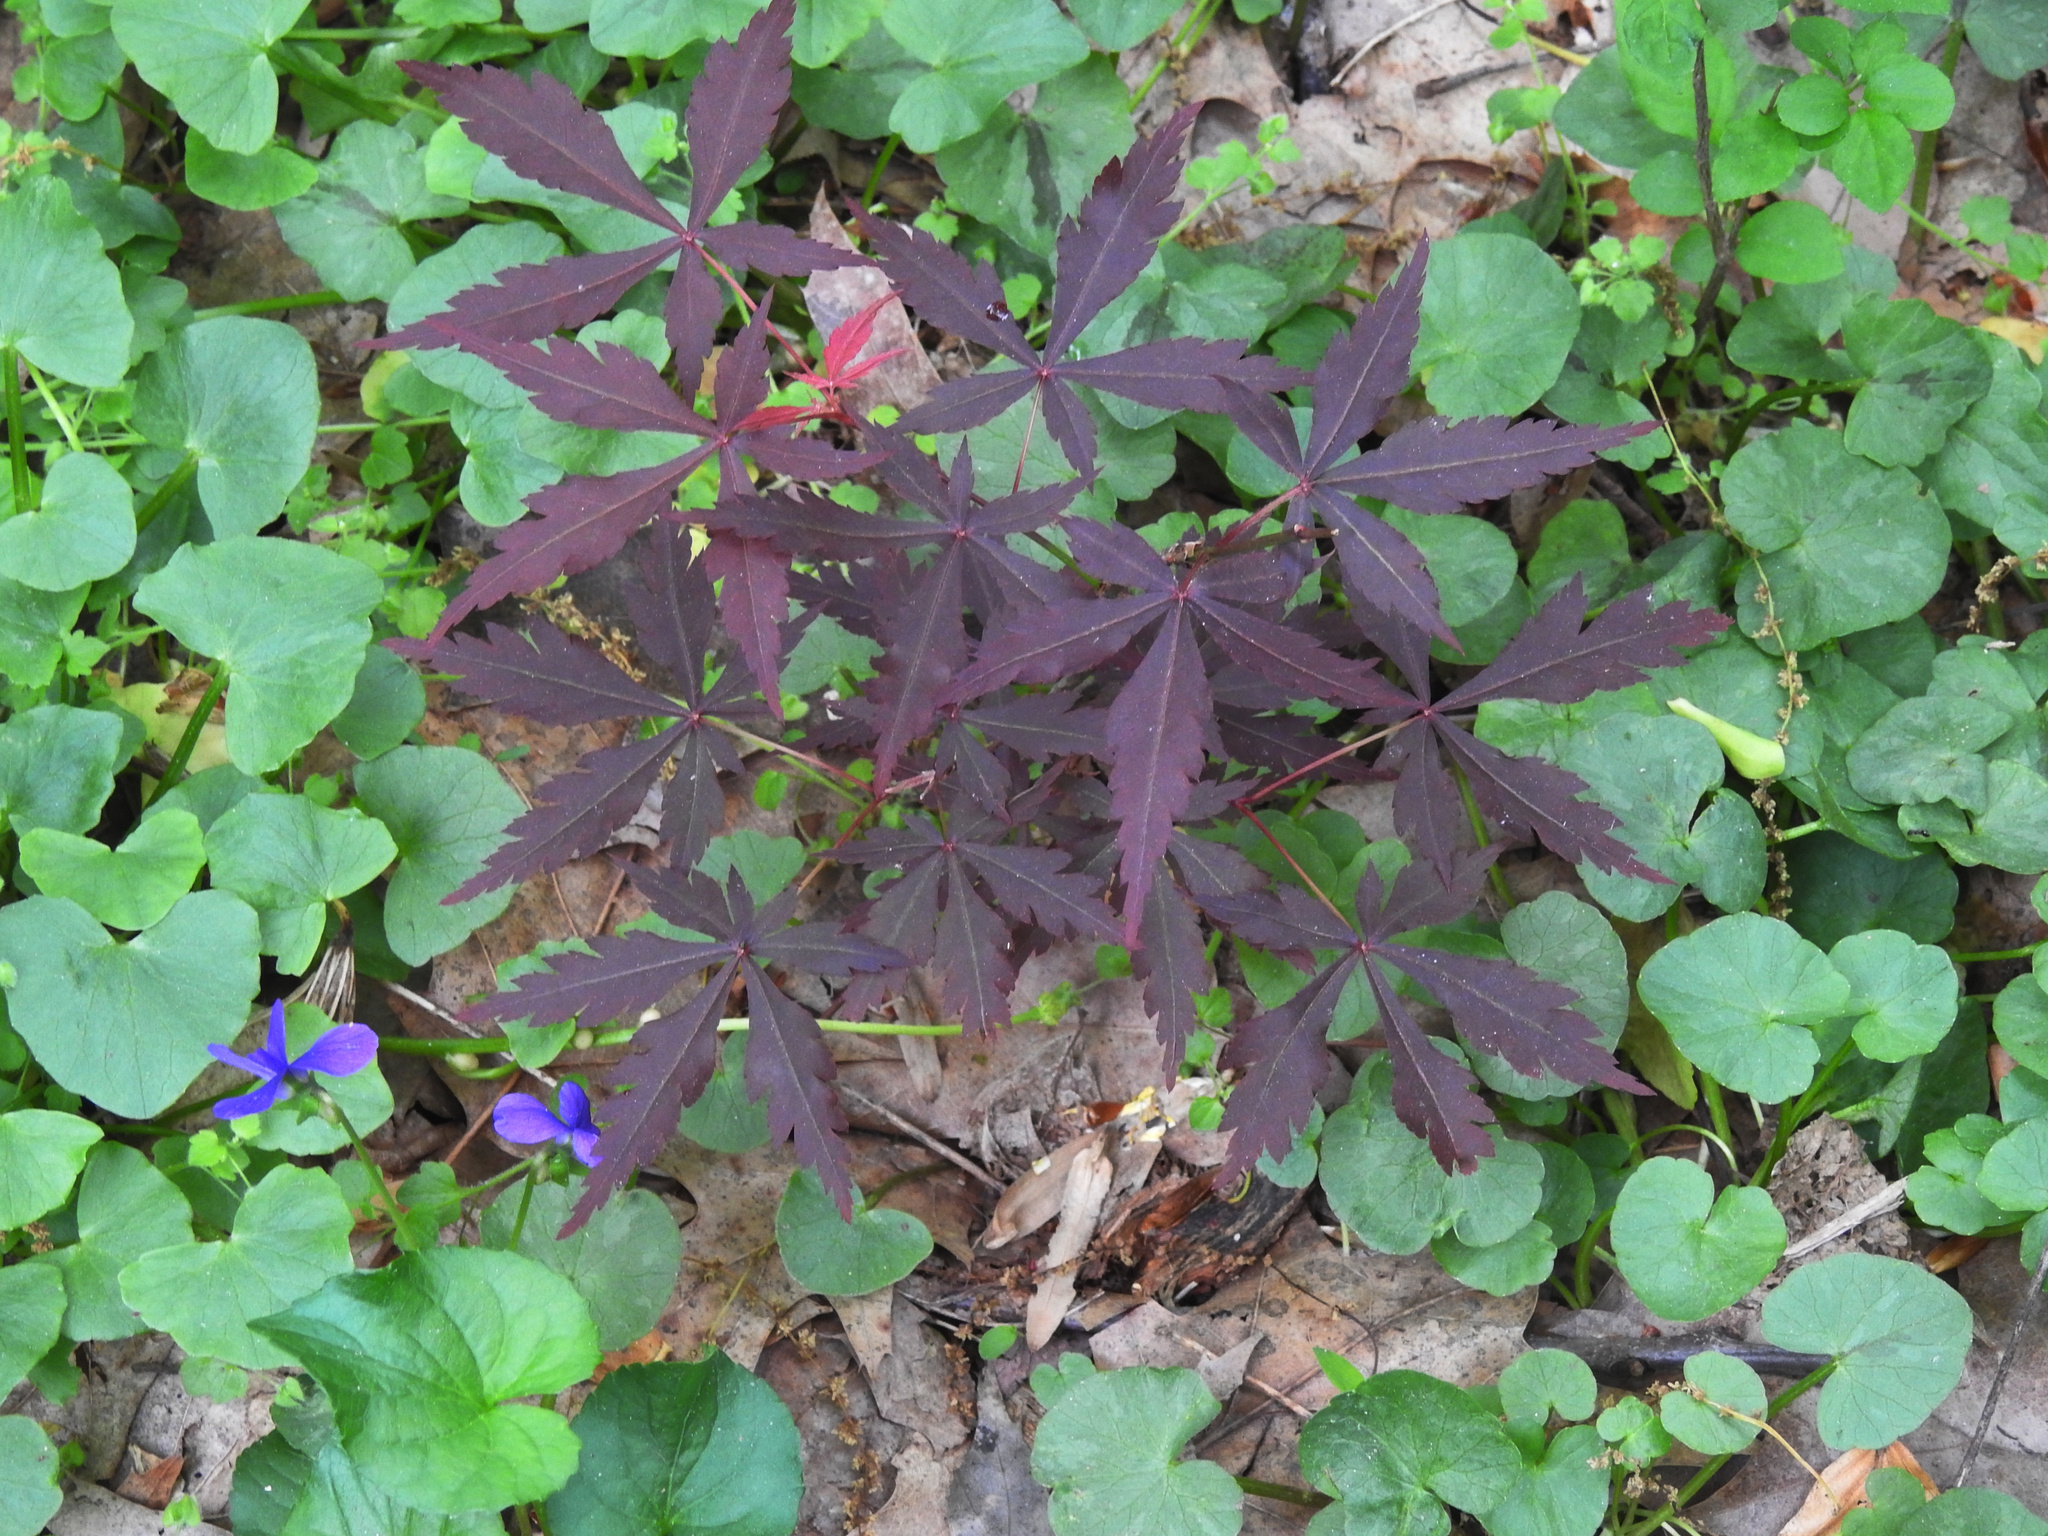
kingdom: Plantae
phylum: Tracheophyta
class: Magnoliopsida
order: Sapindales
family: Sapindaceae
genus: Acer
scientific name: Acer palmatum
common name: Japanese maple
